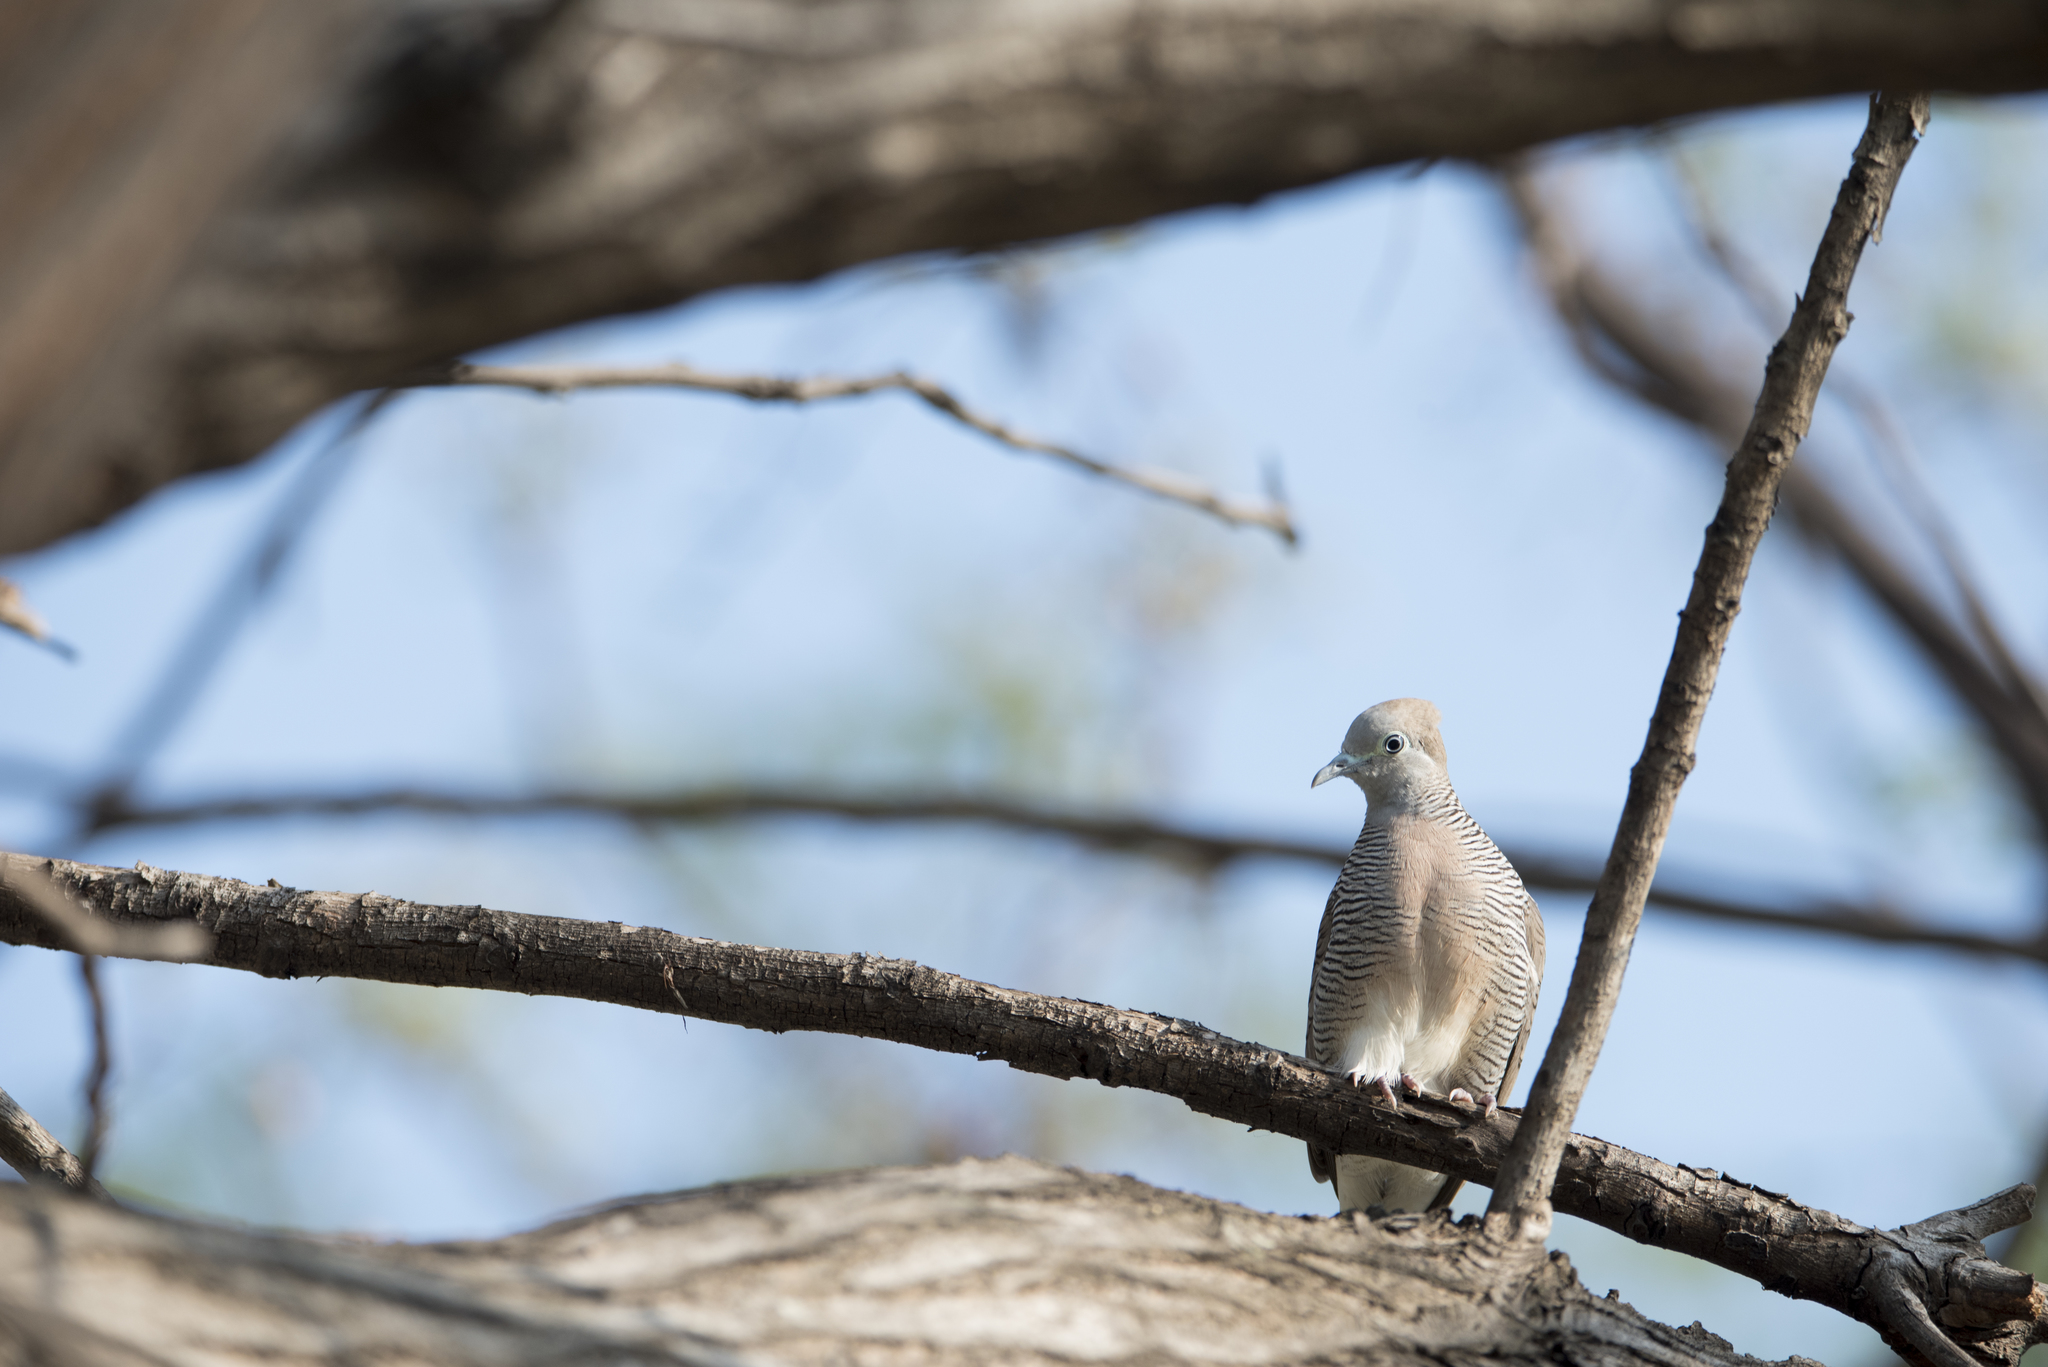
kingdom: Animalia
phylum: Chordata
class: Aves
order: Columbiformes
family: Columbidae
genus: Geopelia
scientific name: Geopelia striata
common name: Zebra dove
